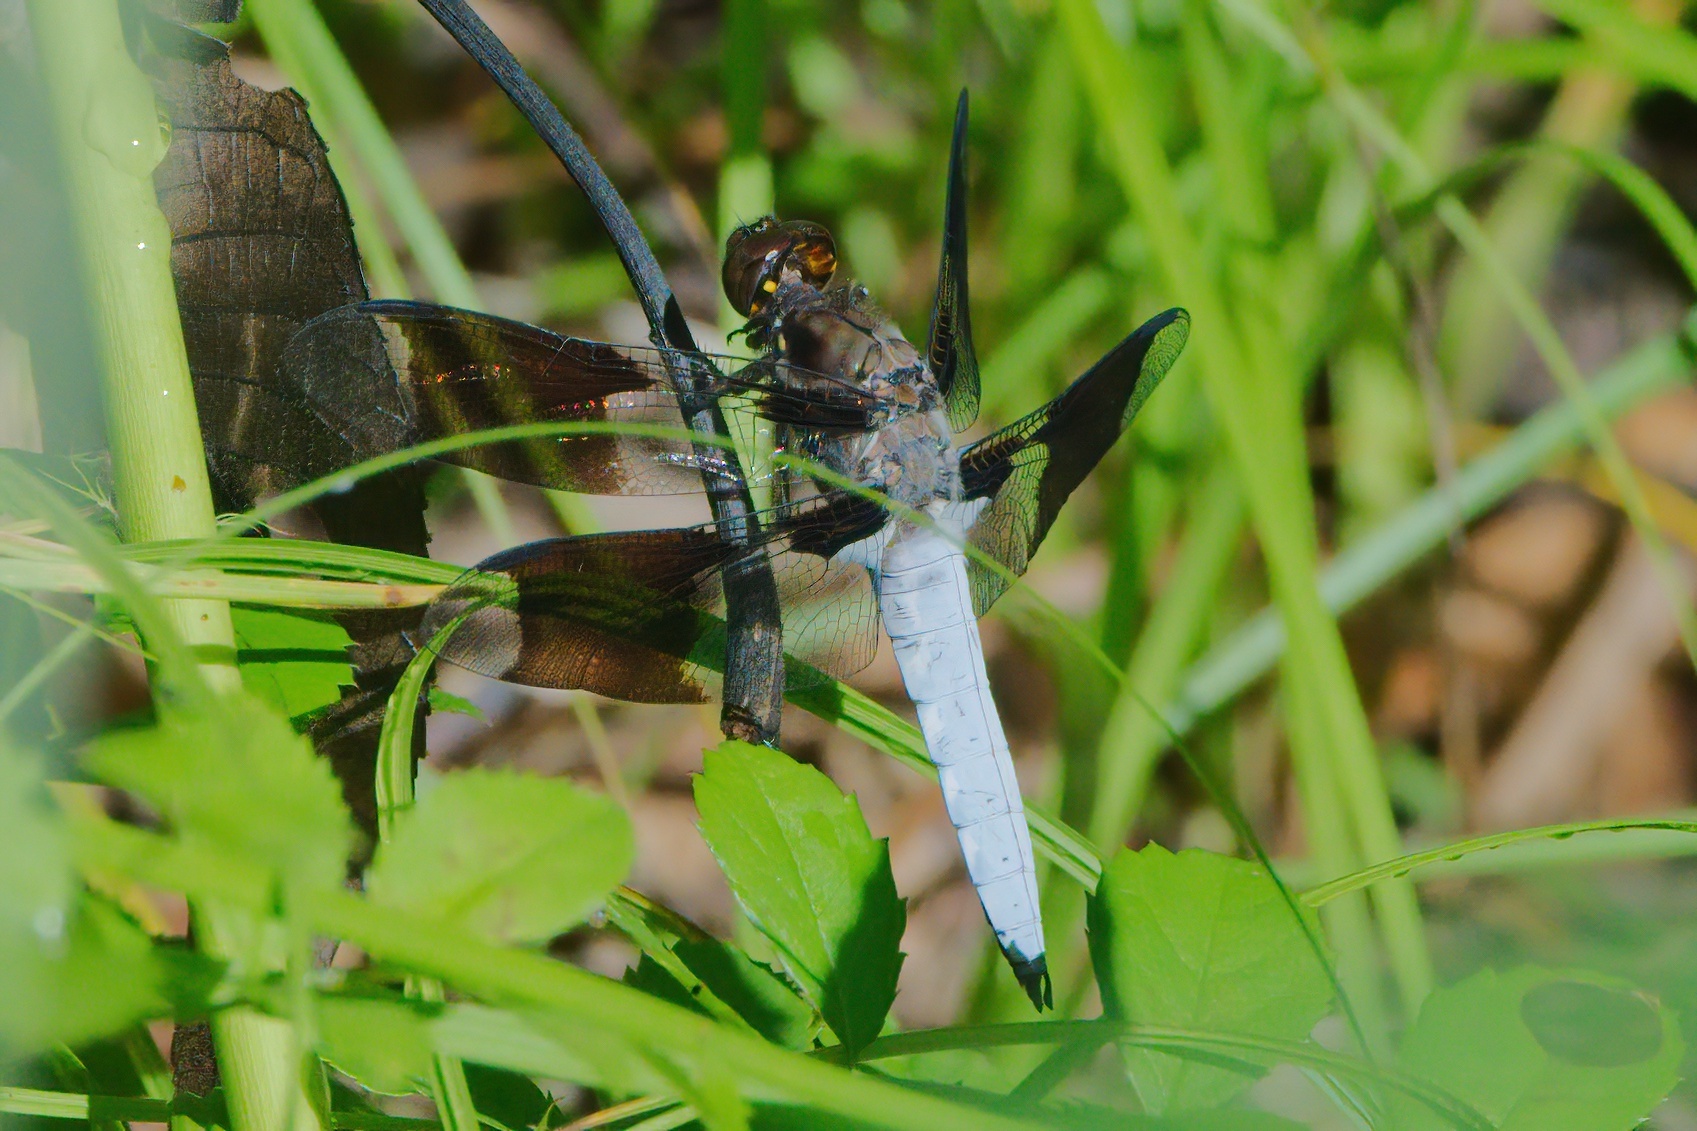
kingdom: Animalia
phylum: Arthropoda
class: Insecta
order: Odonata
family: Libellulidae
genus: Plathemis
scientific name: Plathemis lydia
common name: Common whitetail
